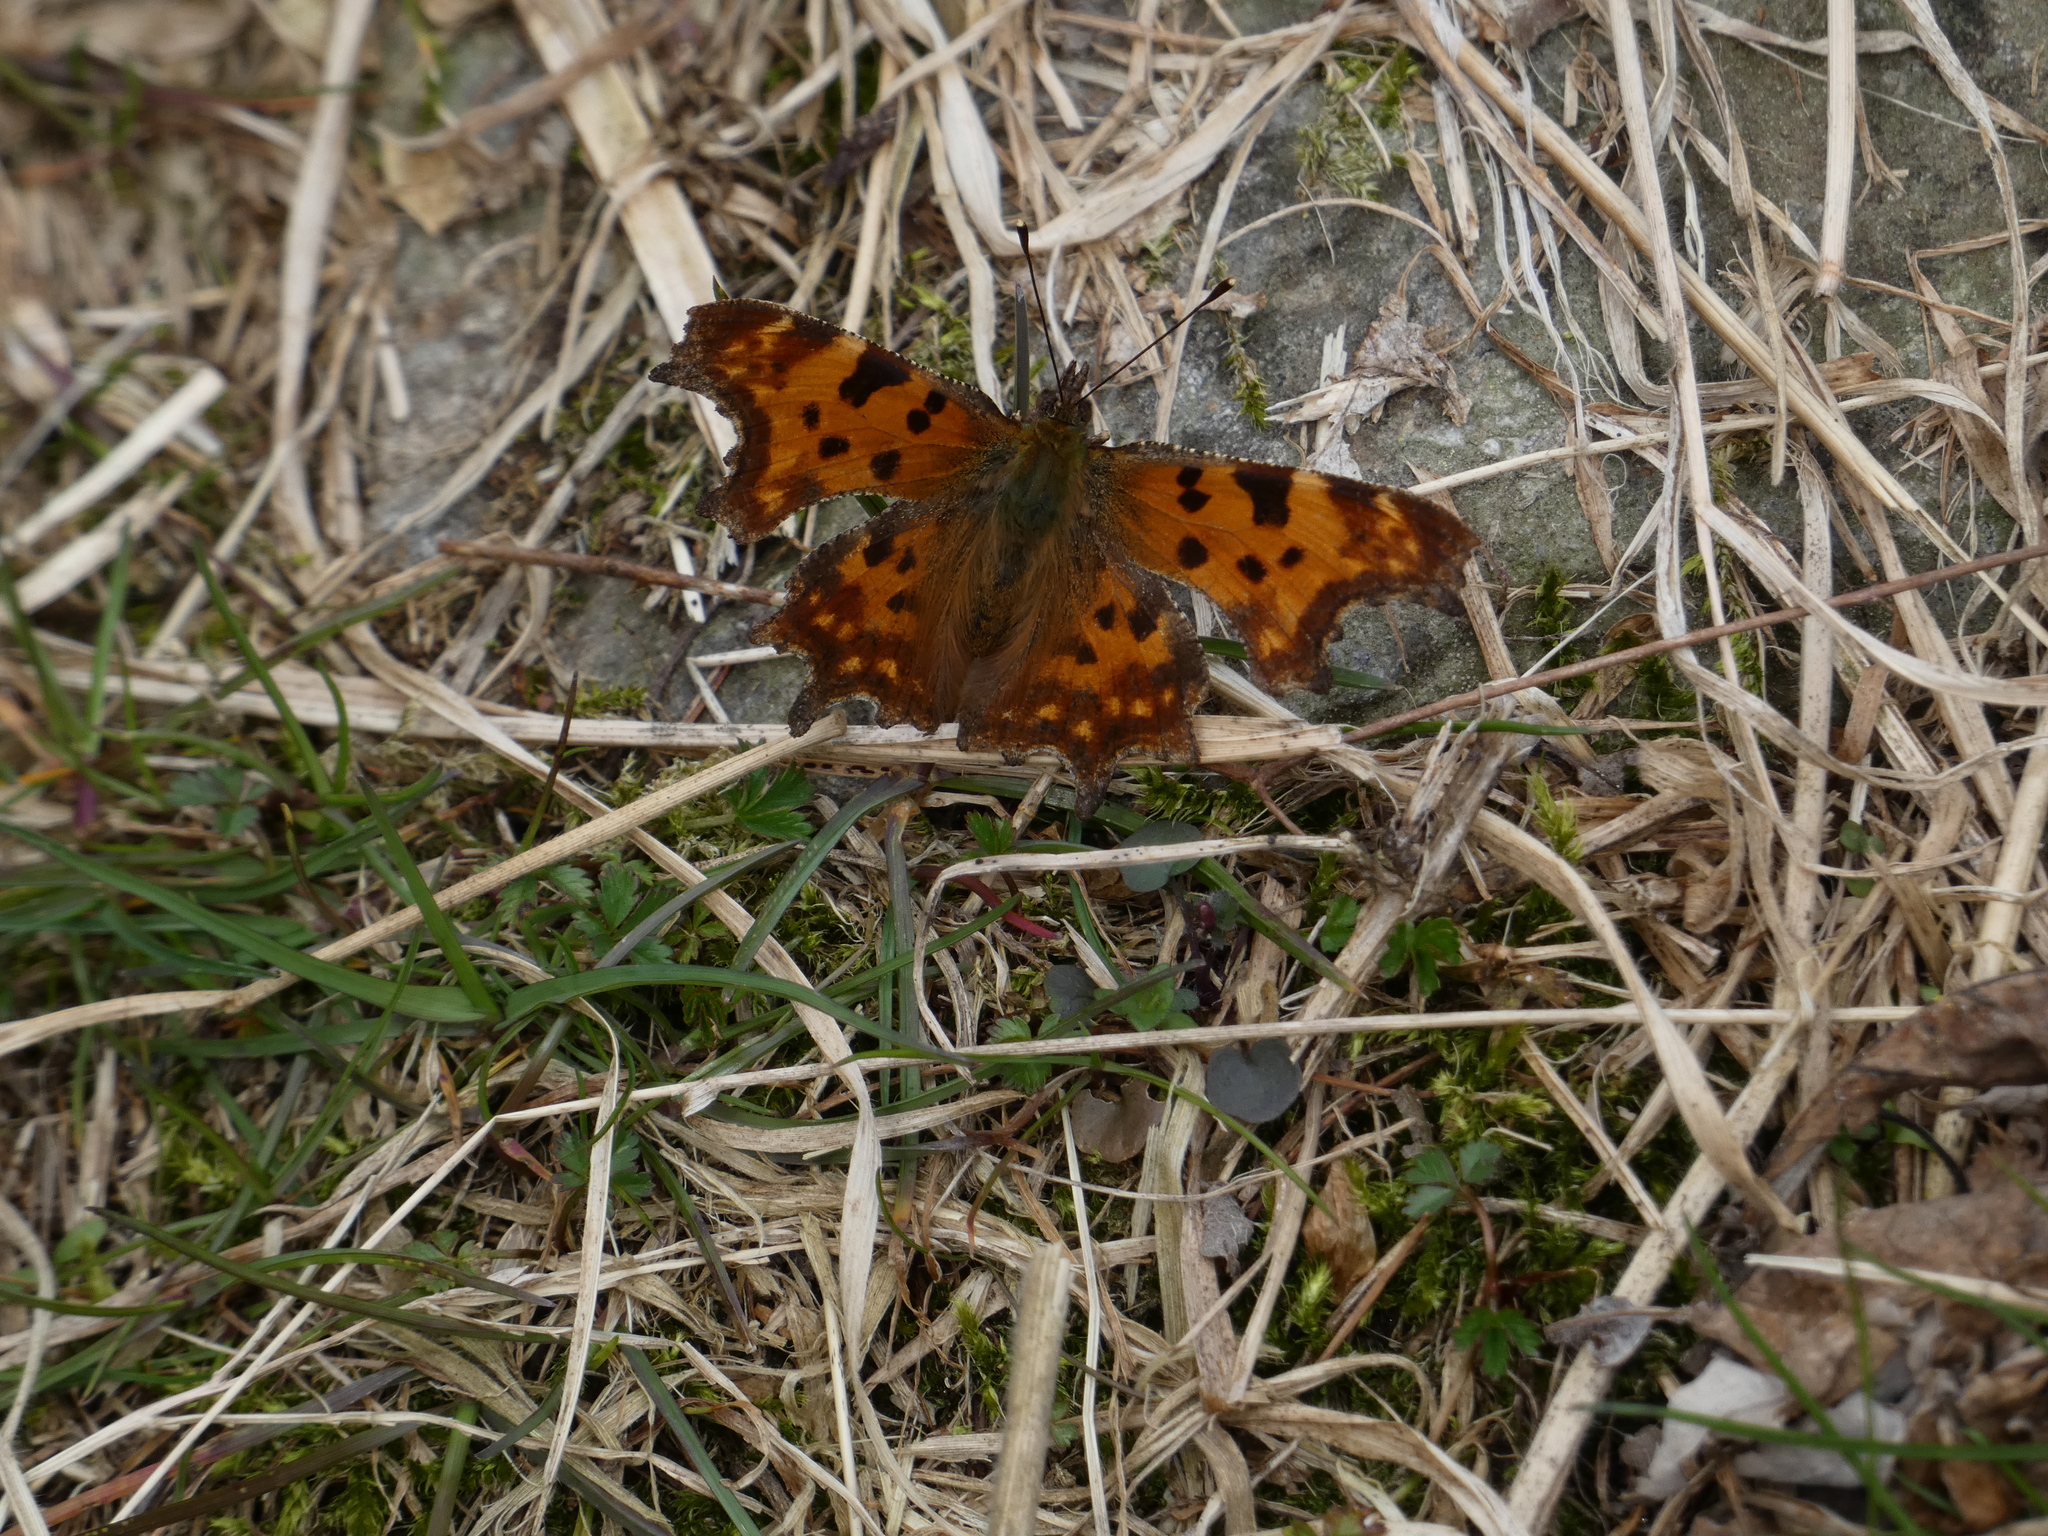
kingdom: Animalia
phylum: Arthropoda
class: Insecta
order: Lepidoptera
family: Nymphalidae
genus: Polygonia
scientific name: Polygonia c-album
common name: Comma
